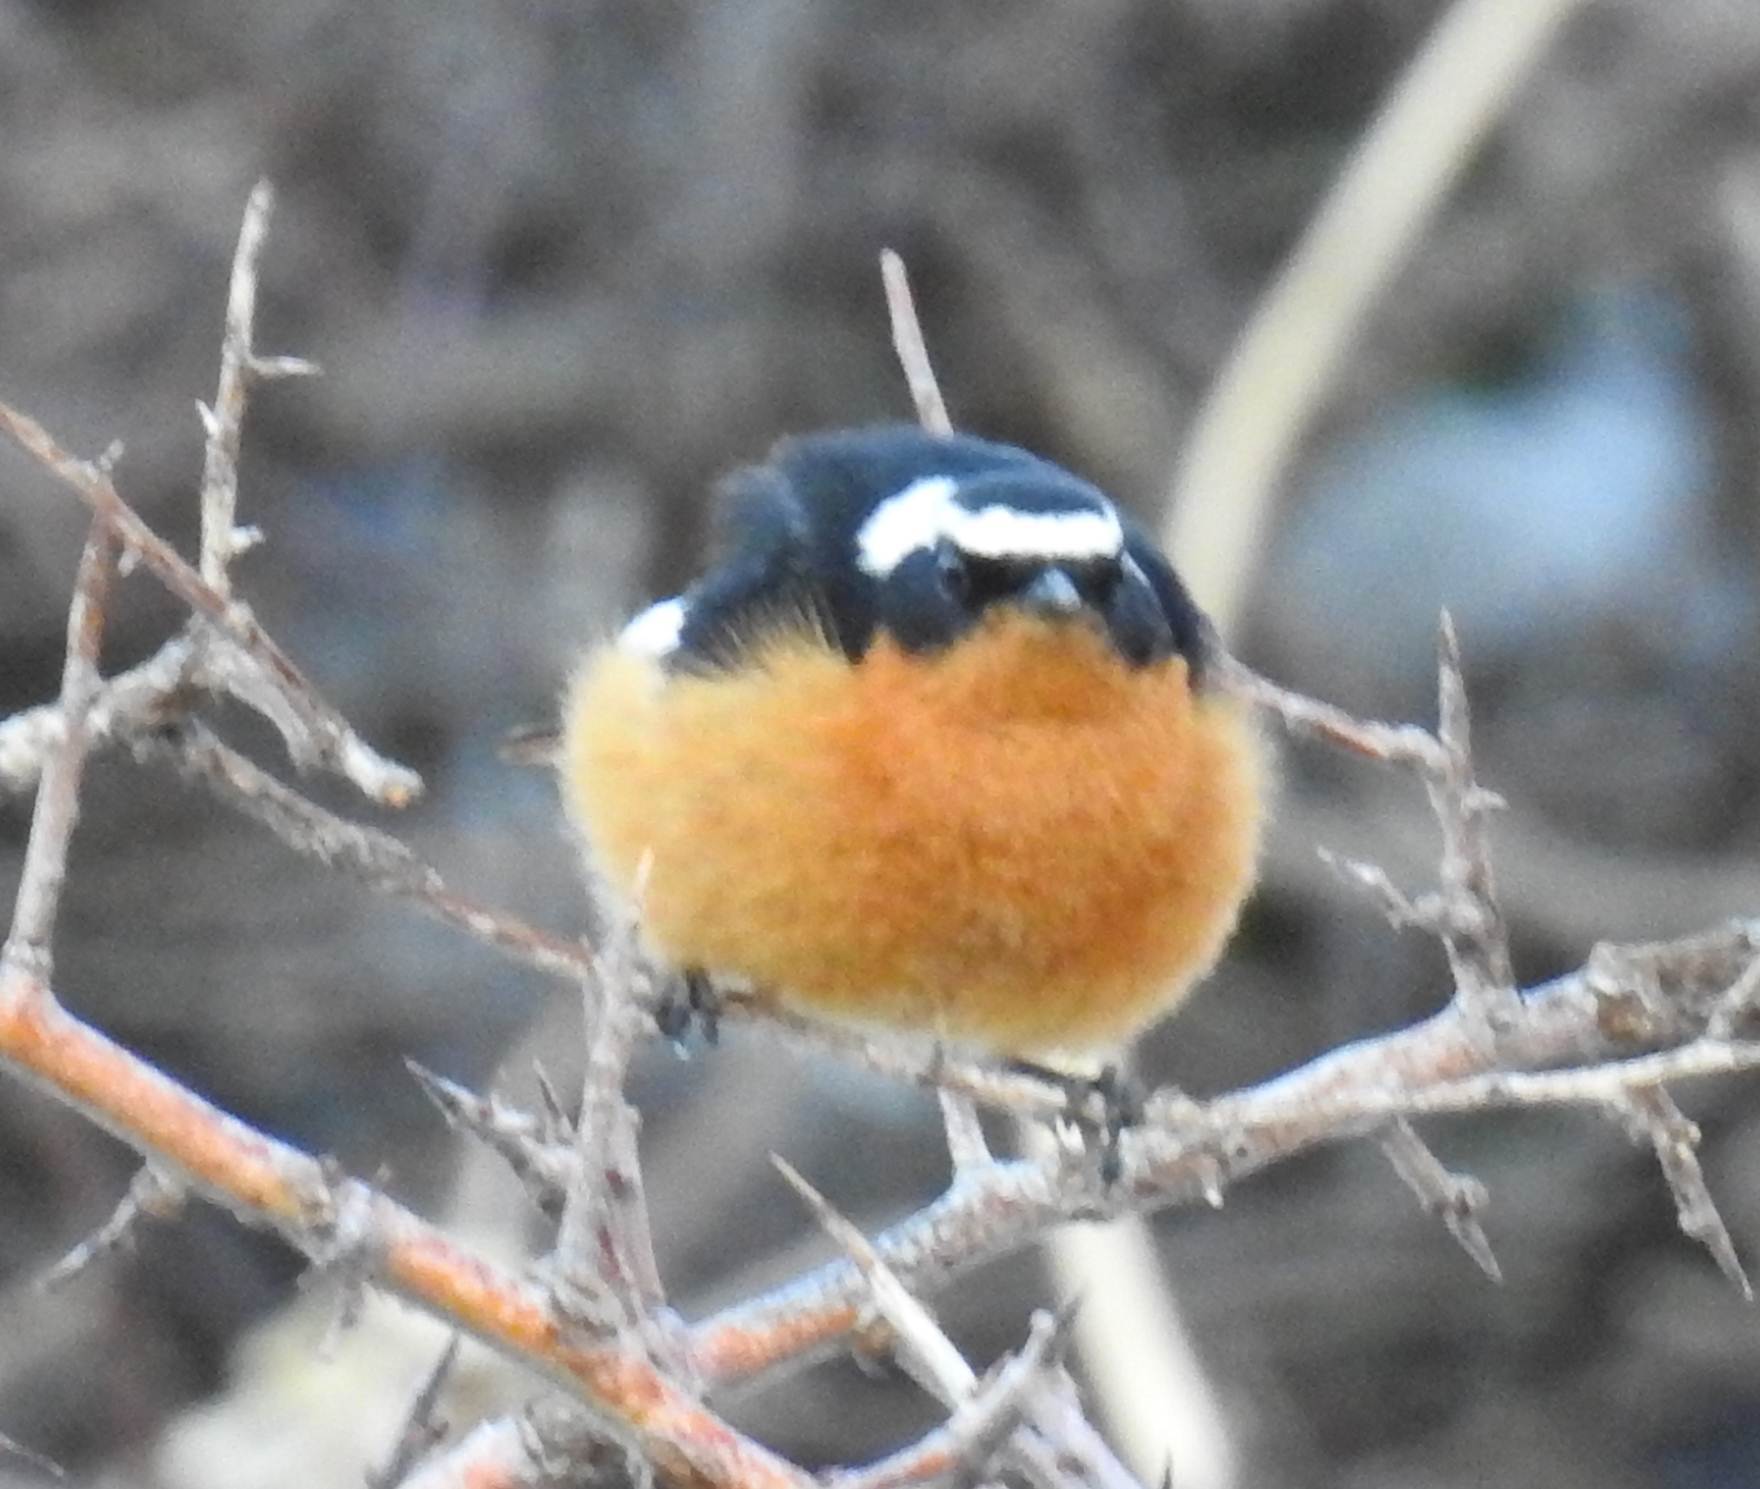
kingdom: Animalia
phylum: Chordata
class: Aves
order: Passeriformes
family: Muscicapidae
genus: Phoenicurus
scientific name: Phoenicurus moussieri
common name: Moussier's redstart
